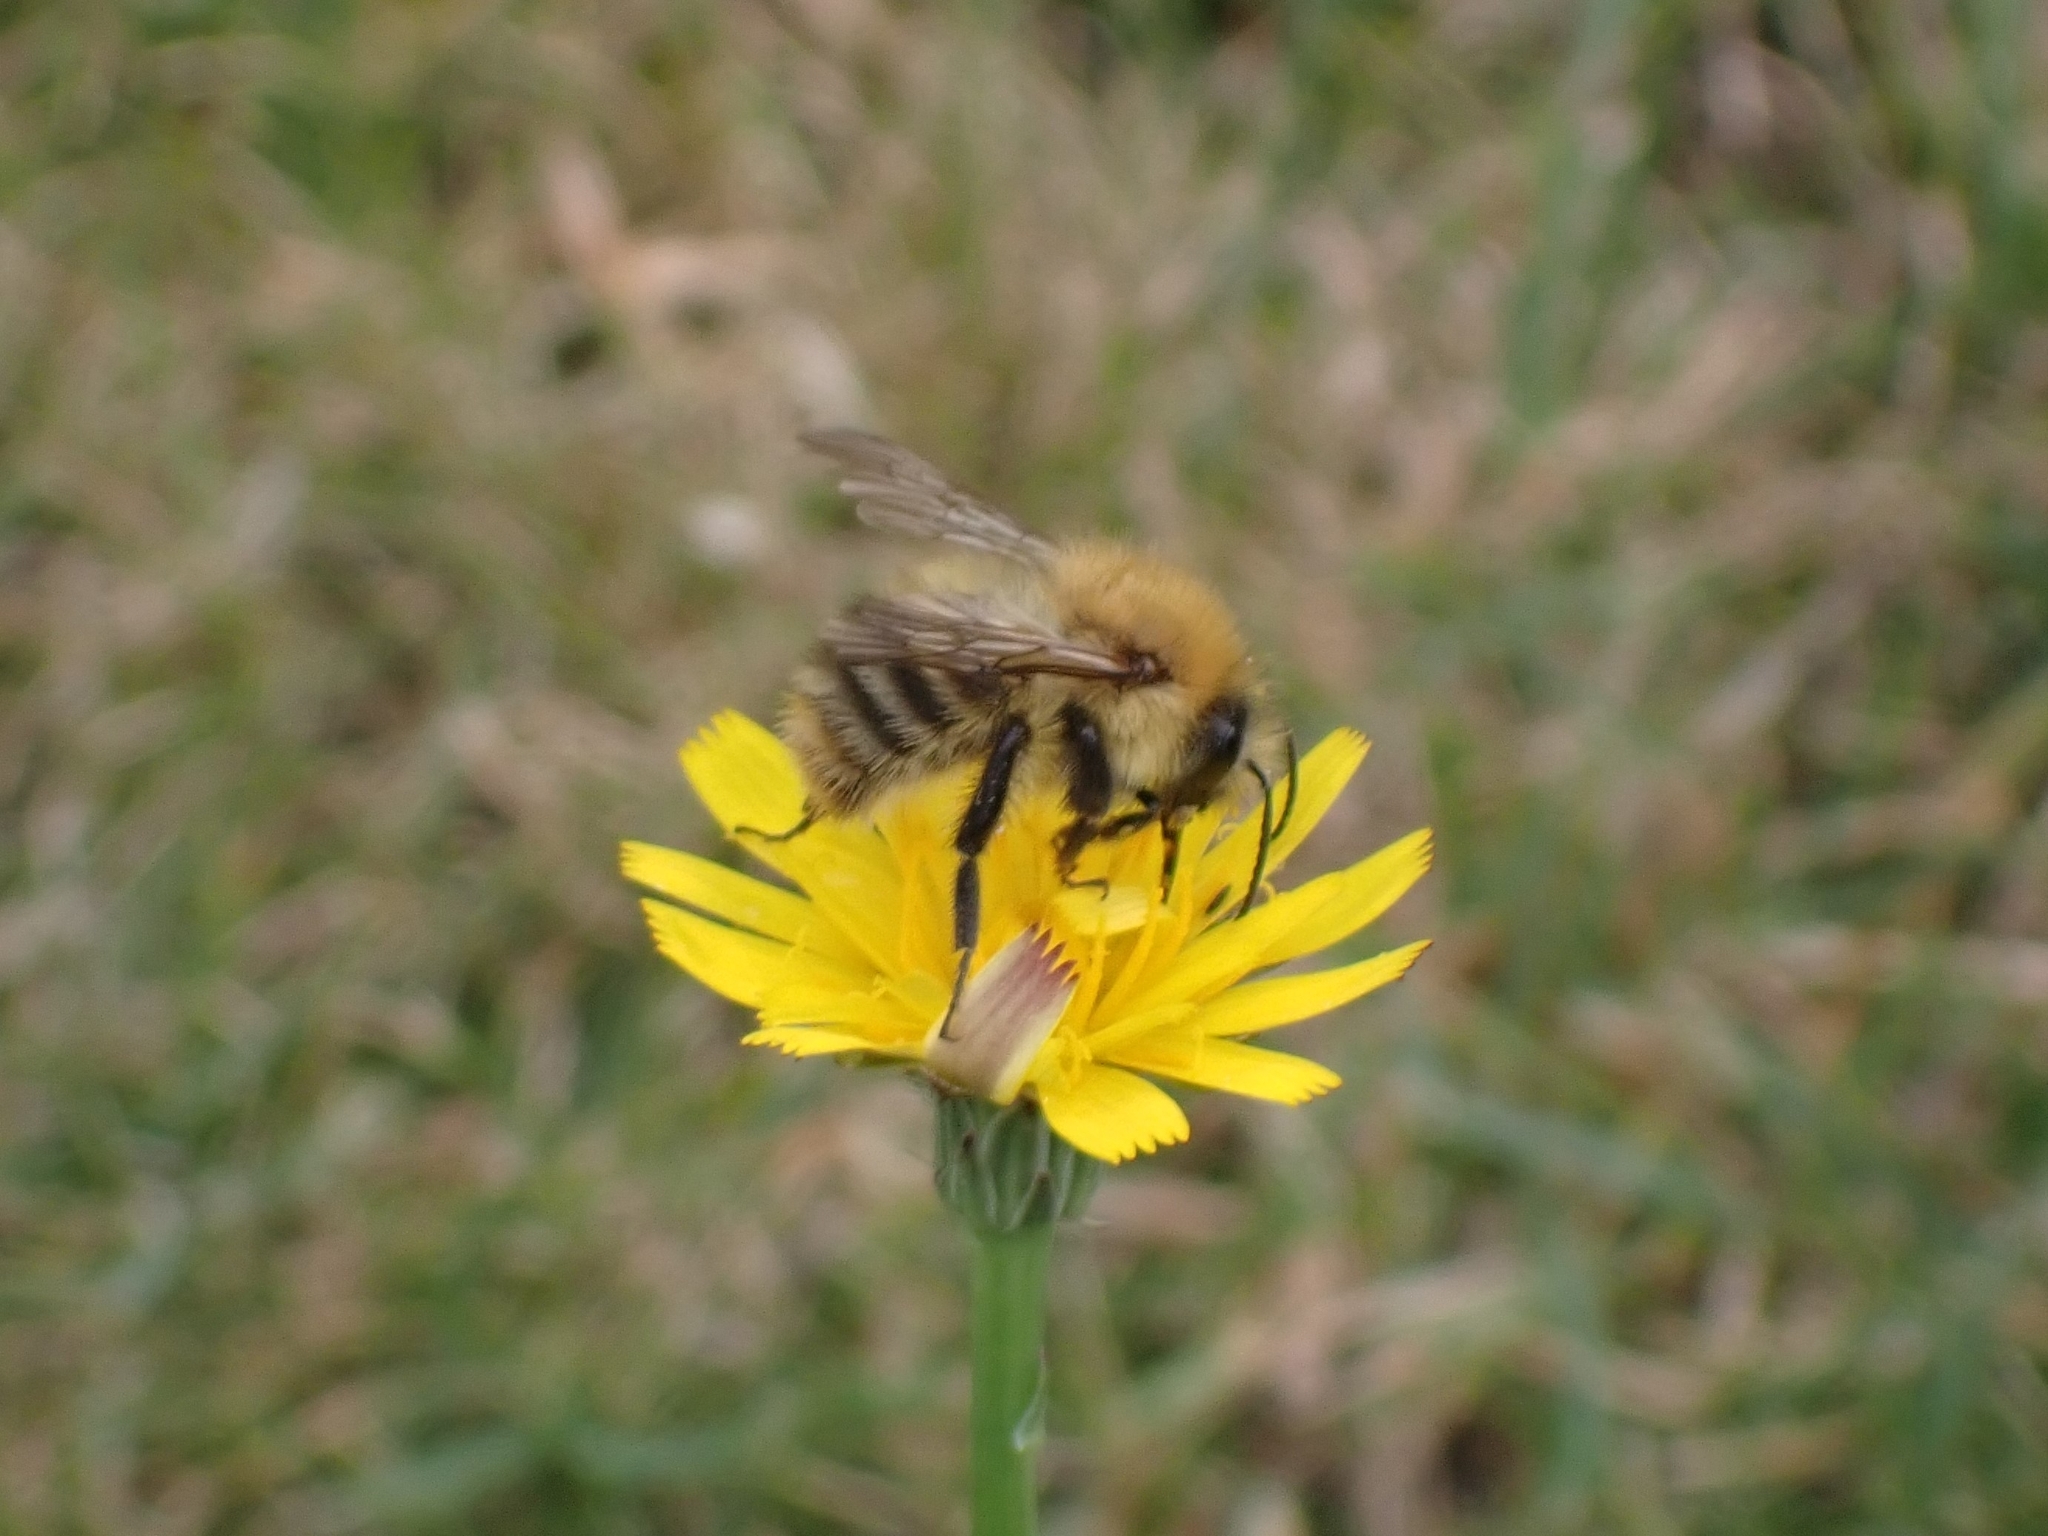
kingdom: Animalia
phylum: Arthropoda
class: Insecta
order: Hymenoptera
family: Apidae
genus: Bombus
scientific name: Bombus pascuorum
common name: Common carder bee
